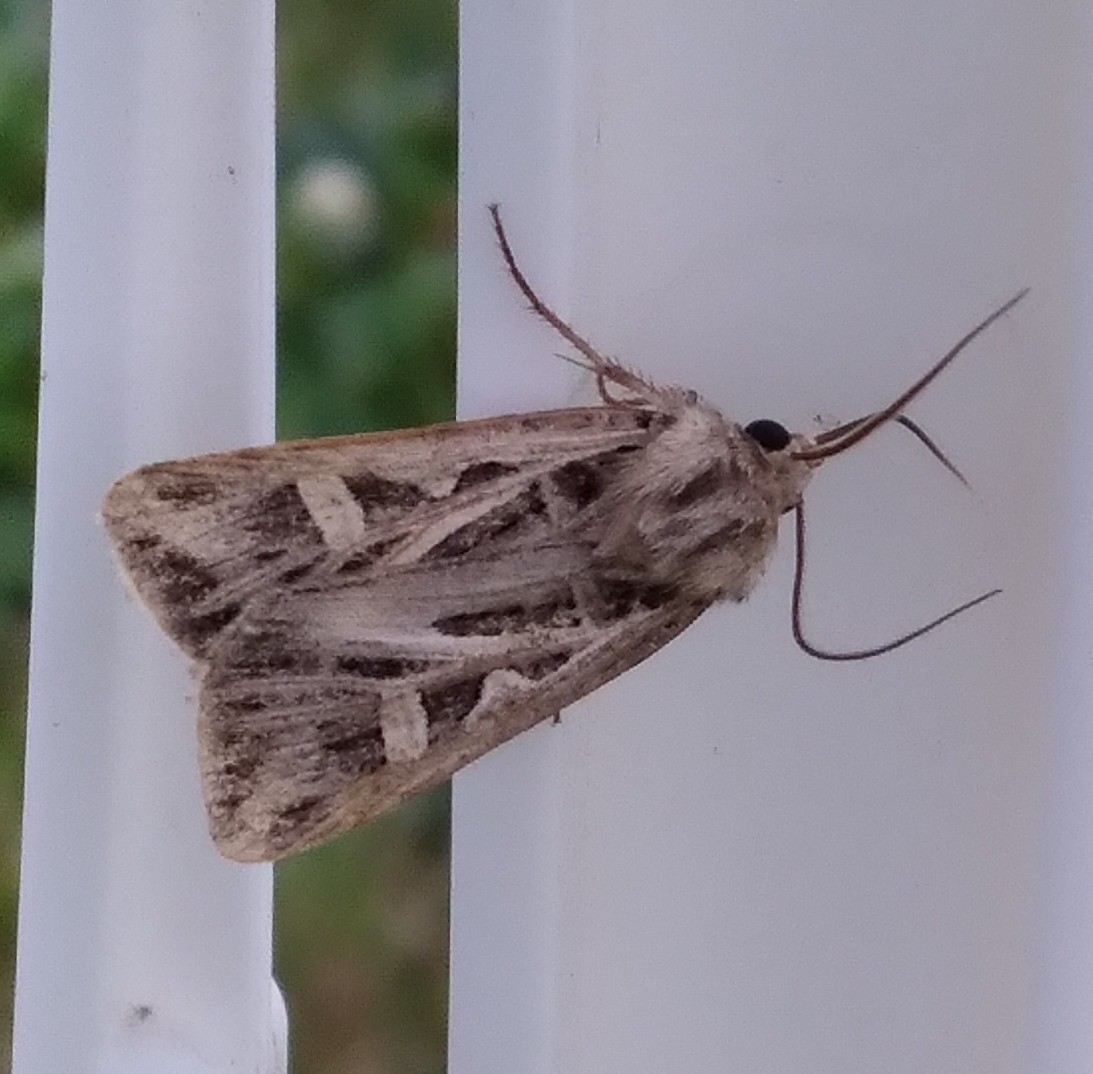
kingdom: Animalia
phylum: Arthropoda
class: Insecta
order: Lepidoptera
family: Noctuidae
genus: Feltia
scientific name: Feltia jaculifera
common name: Dingy cutworm moth
